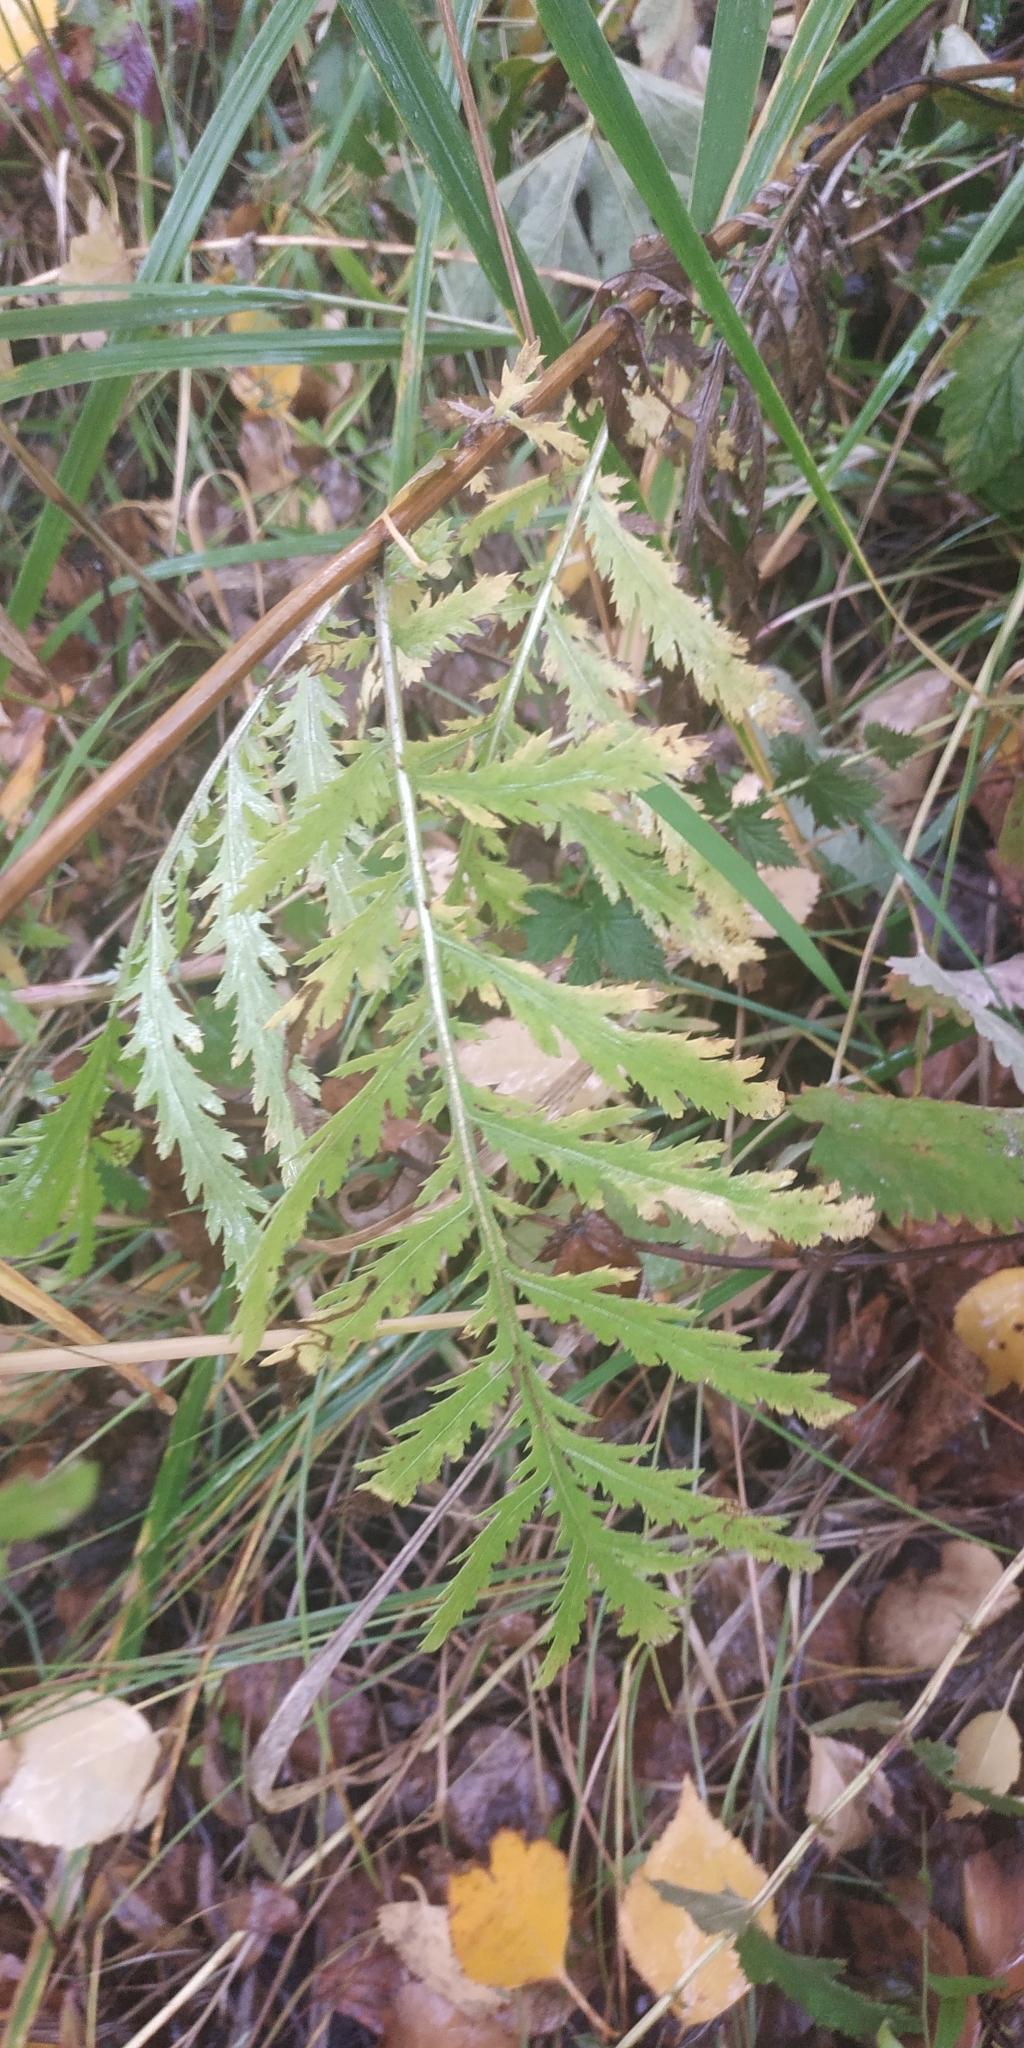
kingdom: Plantae
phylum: Tracheophyta
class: Magnoliopsida
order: Asterales
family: Asteraceae
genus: Tanacetum
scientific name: Tanacetum vulgare
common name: Common tansy
